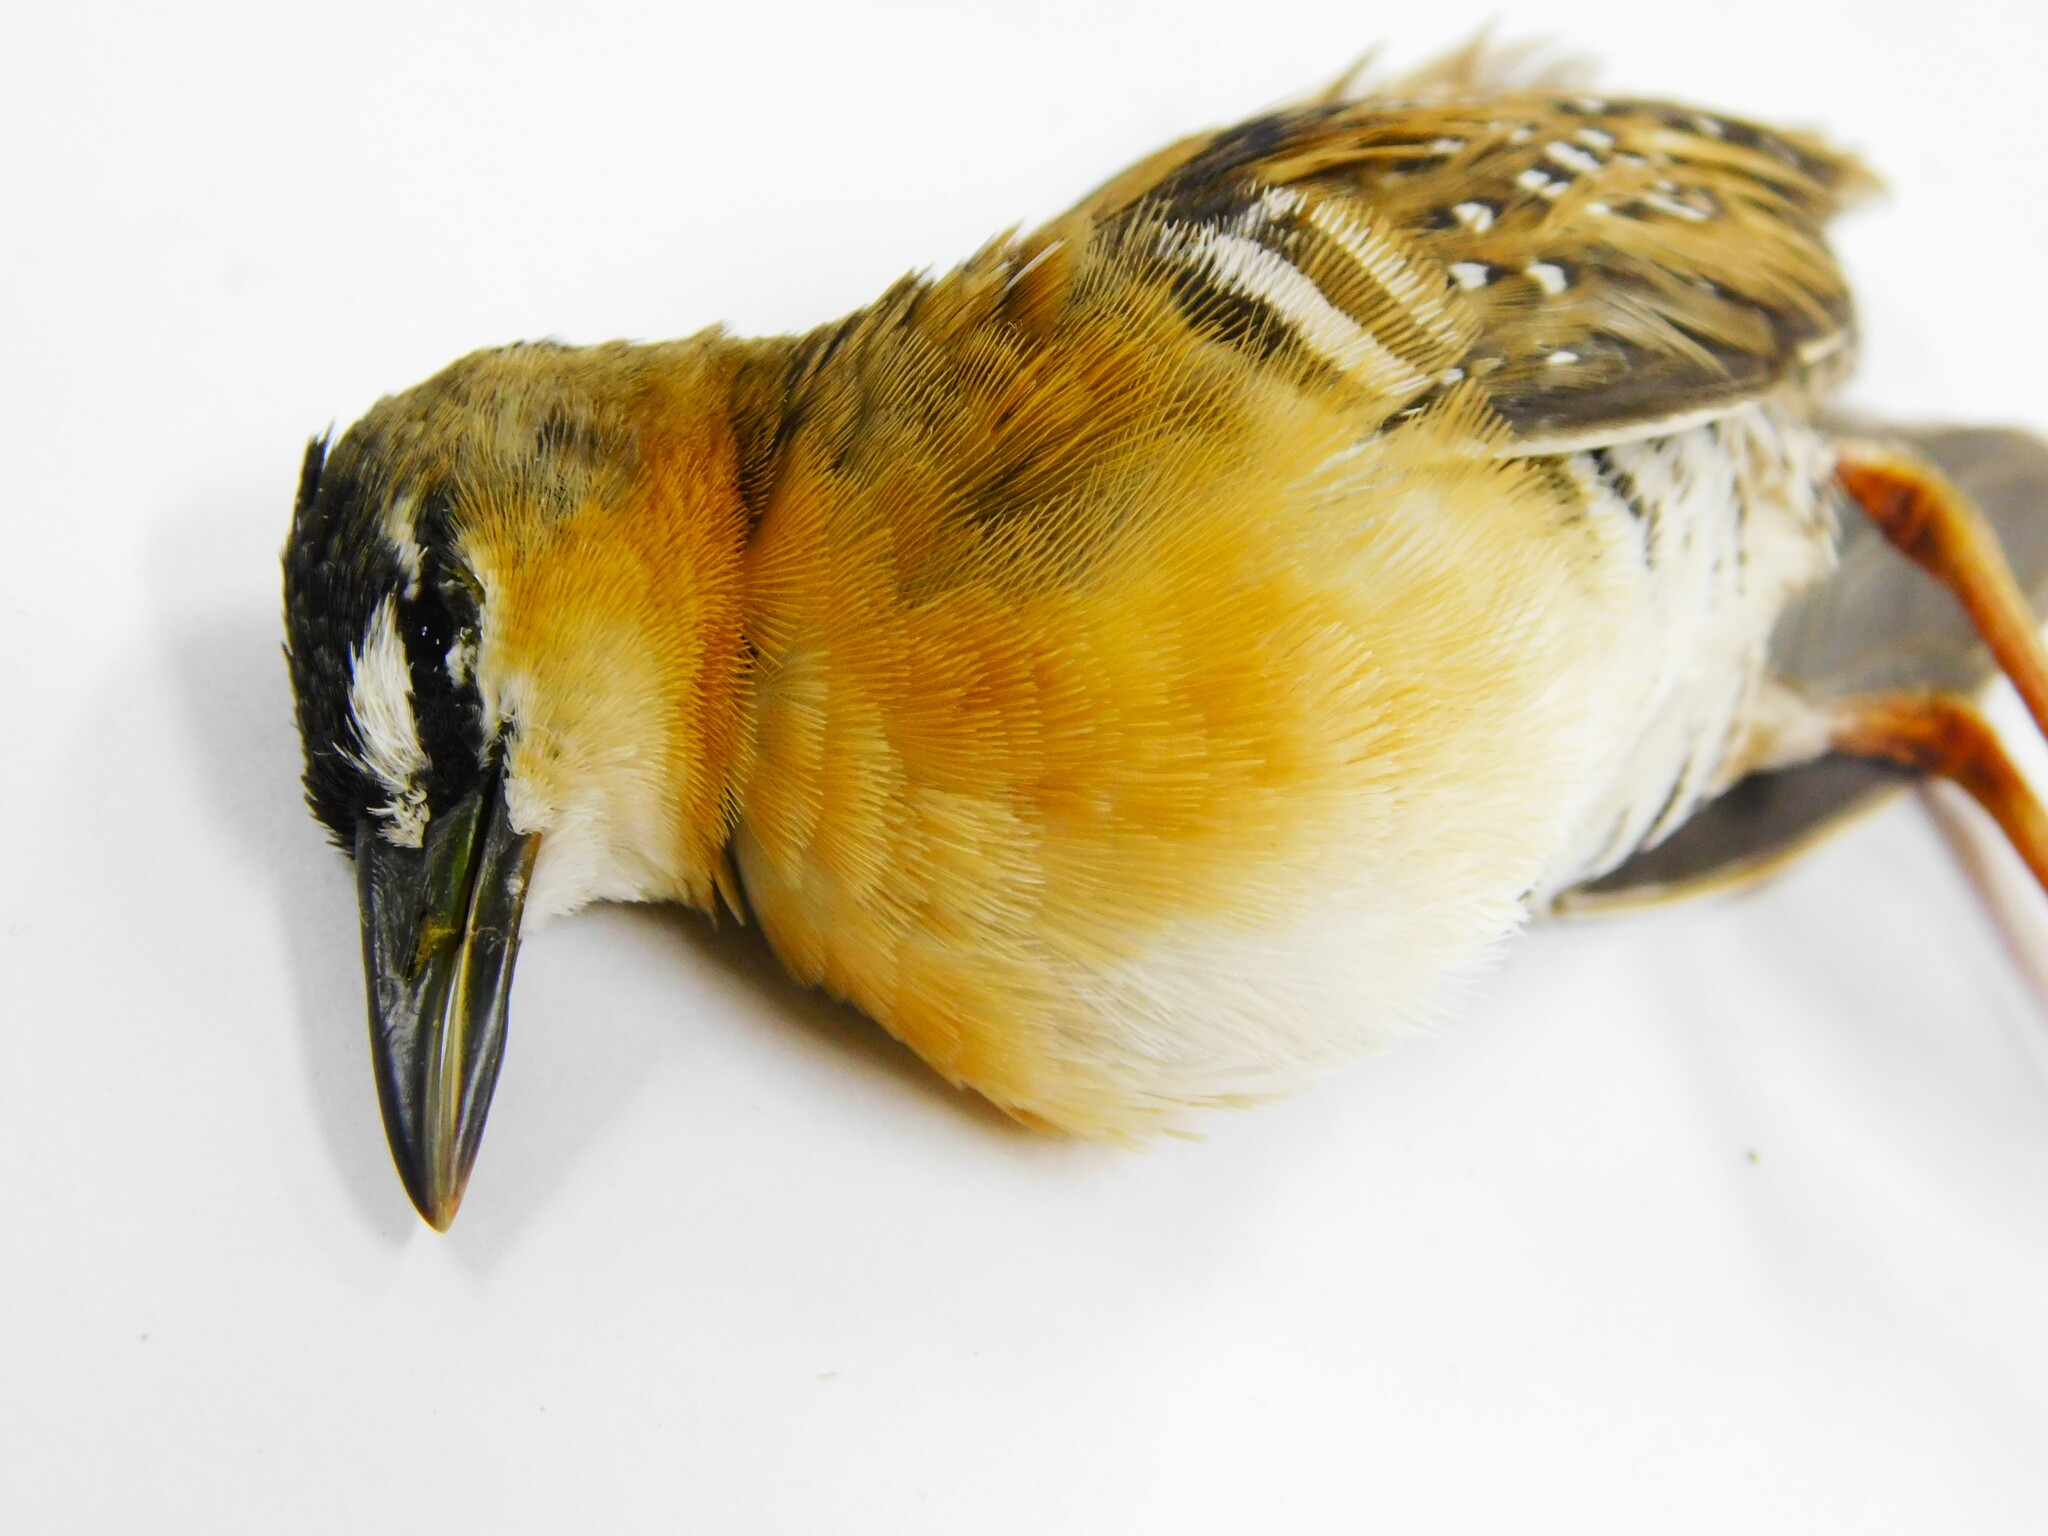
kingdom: Animalia
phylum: Chordata
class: Aves
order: Gruiformes
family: Rallidae
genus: Porzana
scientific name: Porzana flaviventer
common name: Yellow-breasted crake
